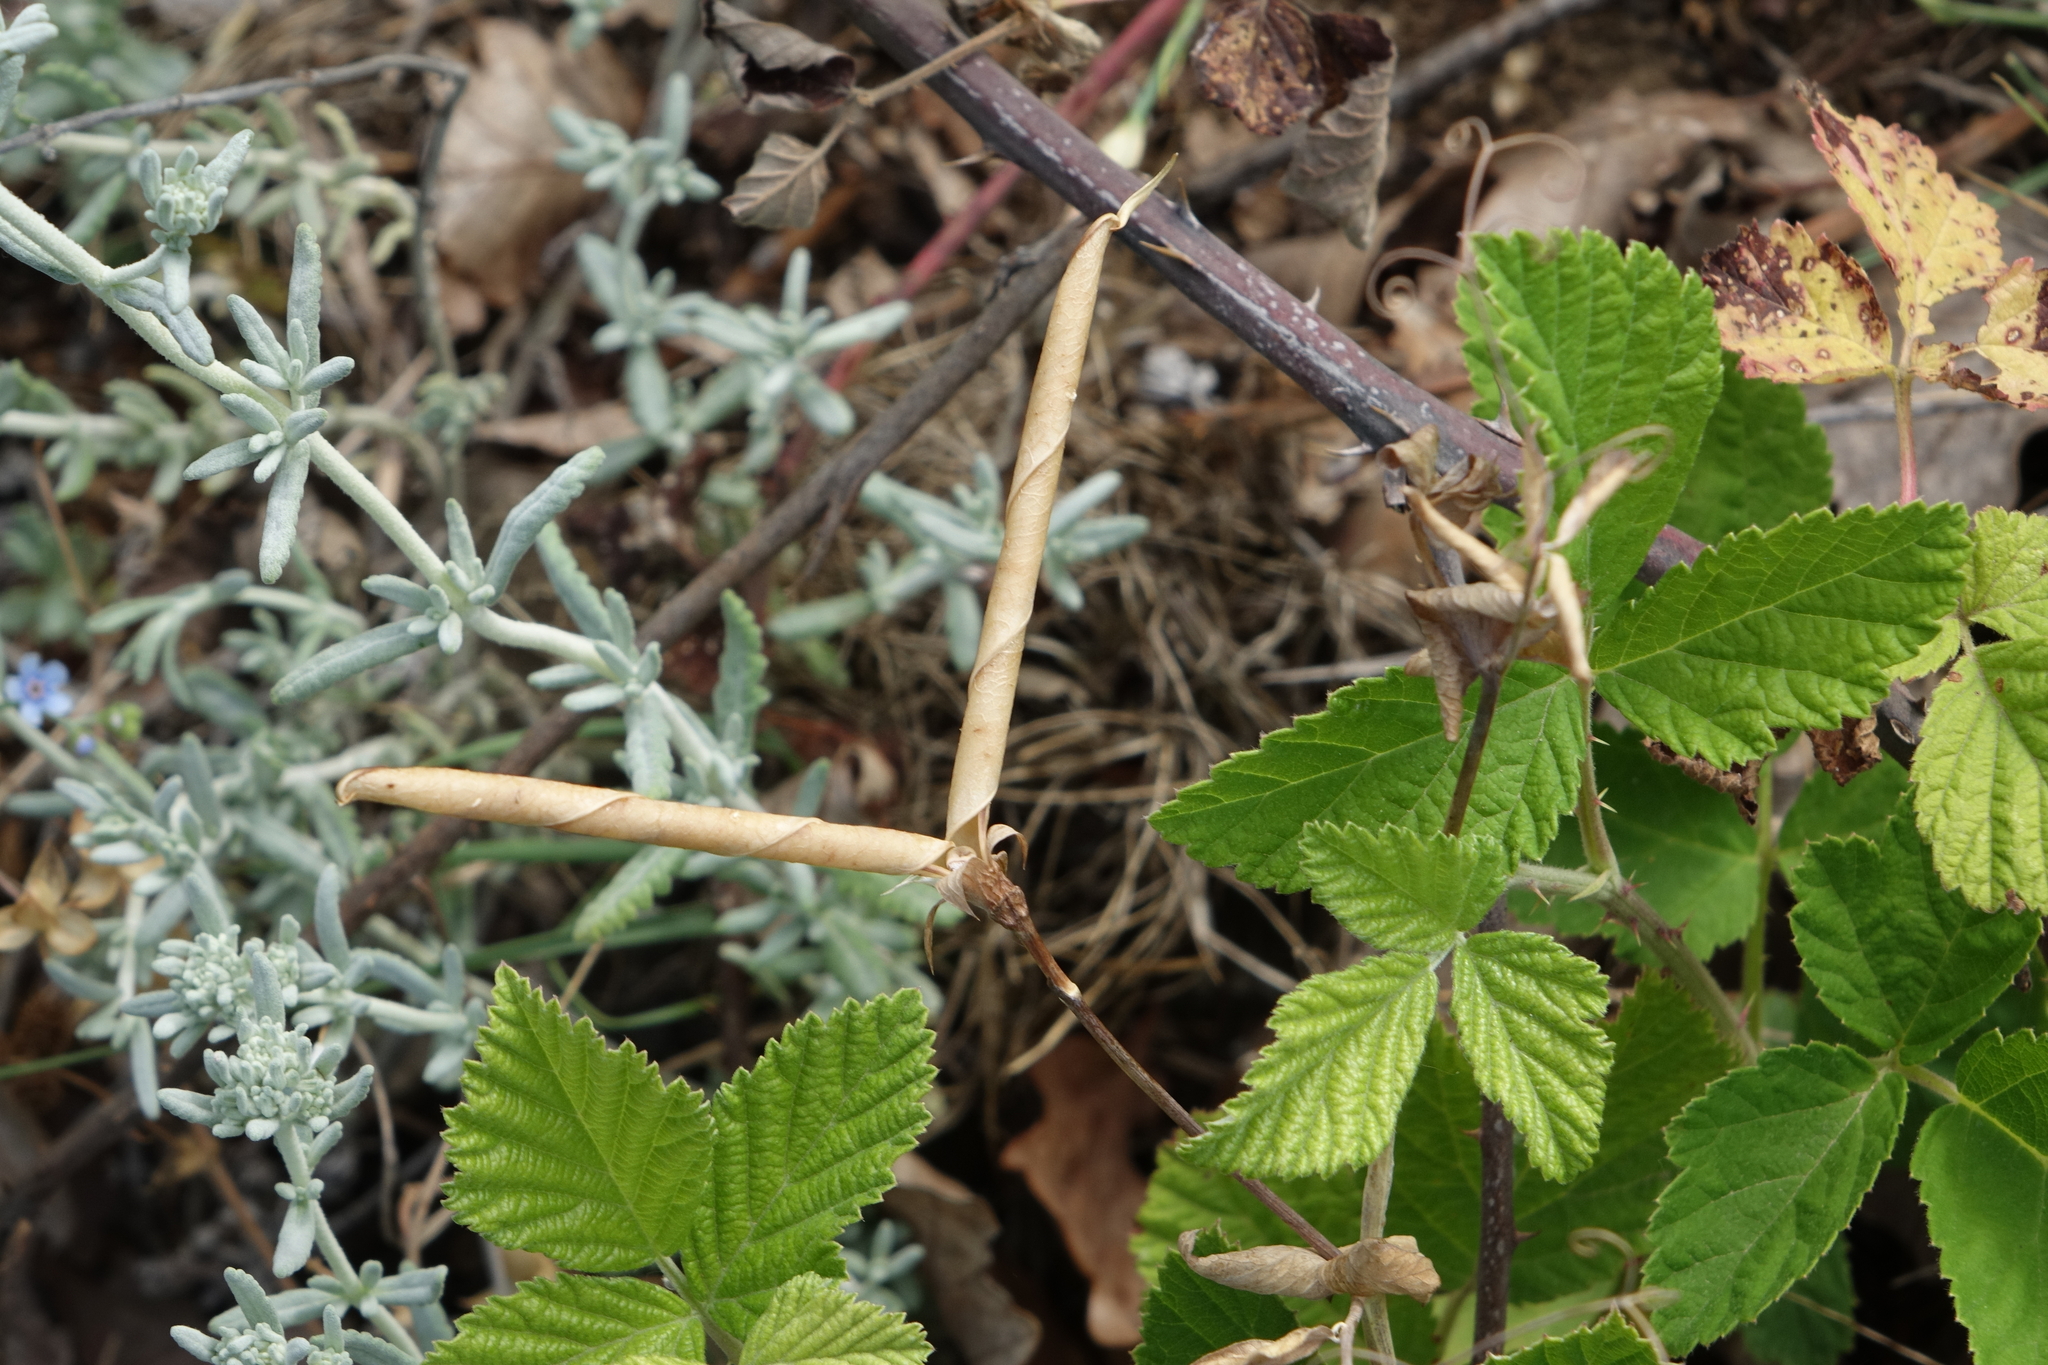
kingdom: Plantae
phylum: Tracheophyta
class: Magnoliopsida
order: Fabales
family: Fabaceae
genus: Lathyrus
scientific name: Lathyrus oleraceus
